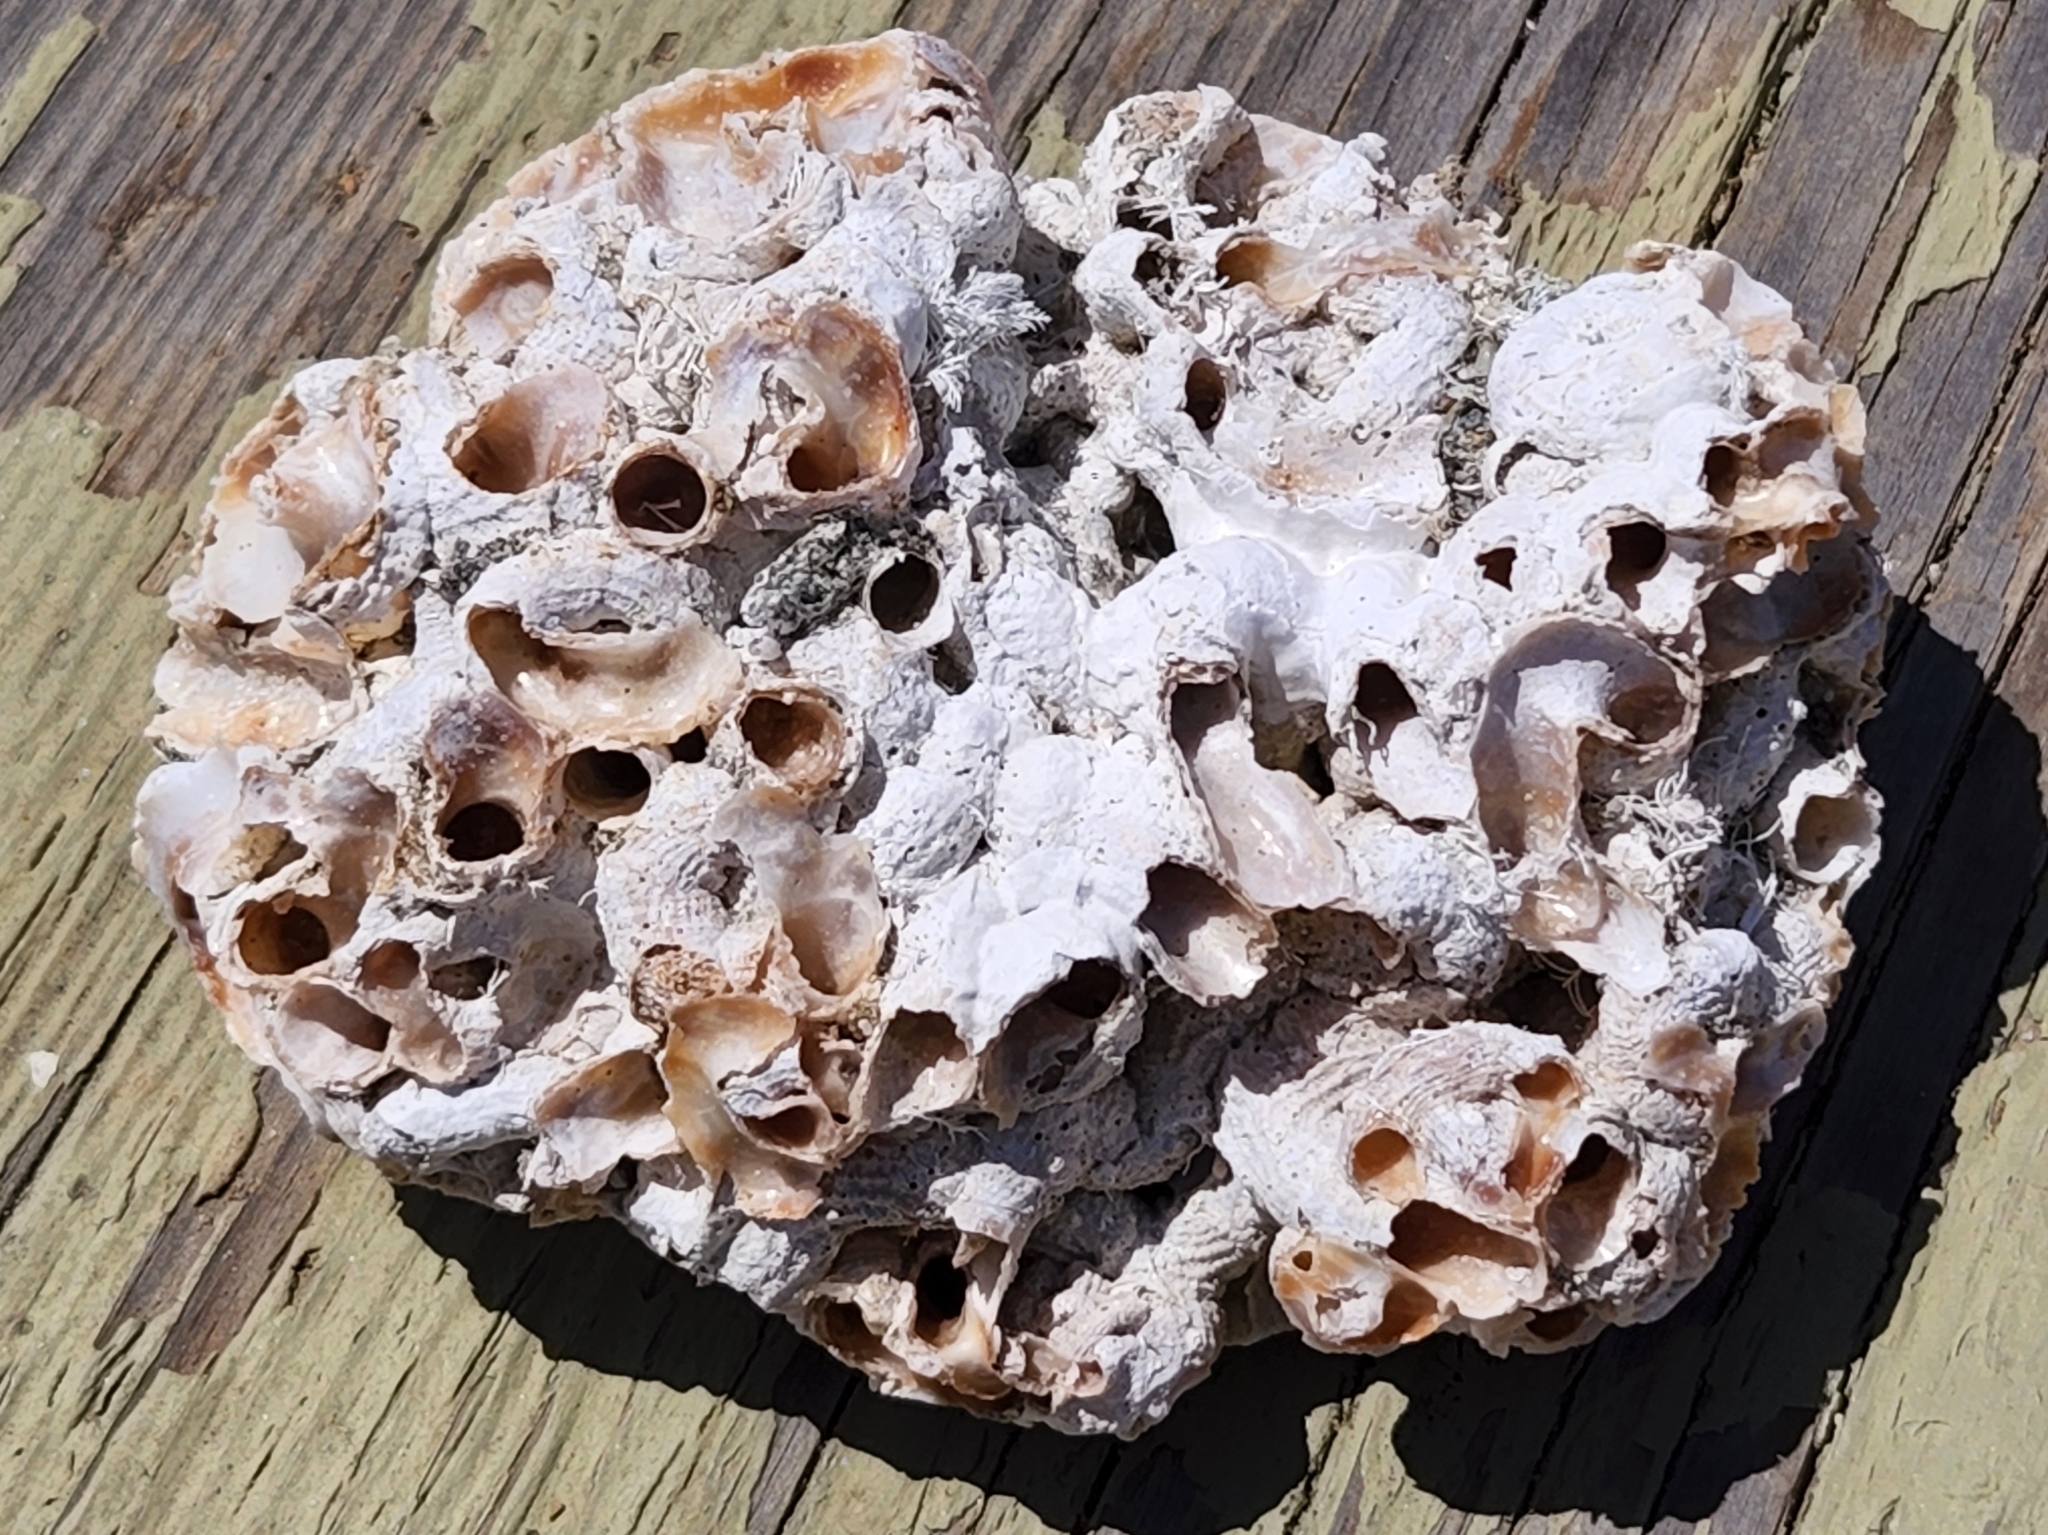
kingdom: Animalia
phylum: Mollusca
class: Gastropoda
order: Littorinimorpha
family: Vermetidae
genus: Thylacodes
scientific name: Thylacodes squamigerus
